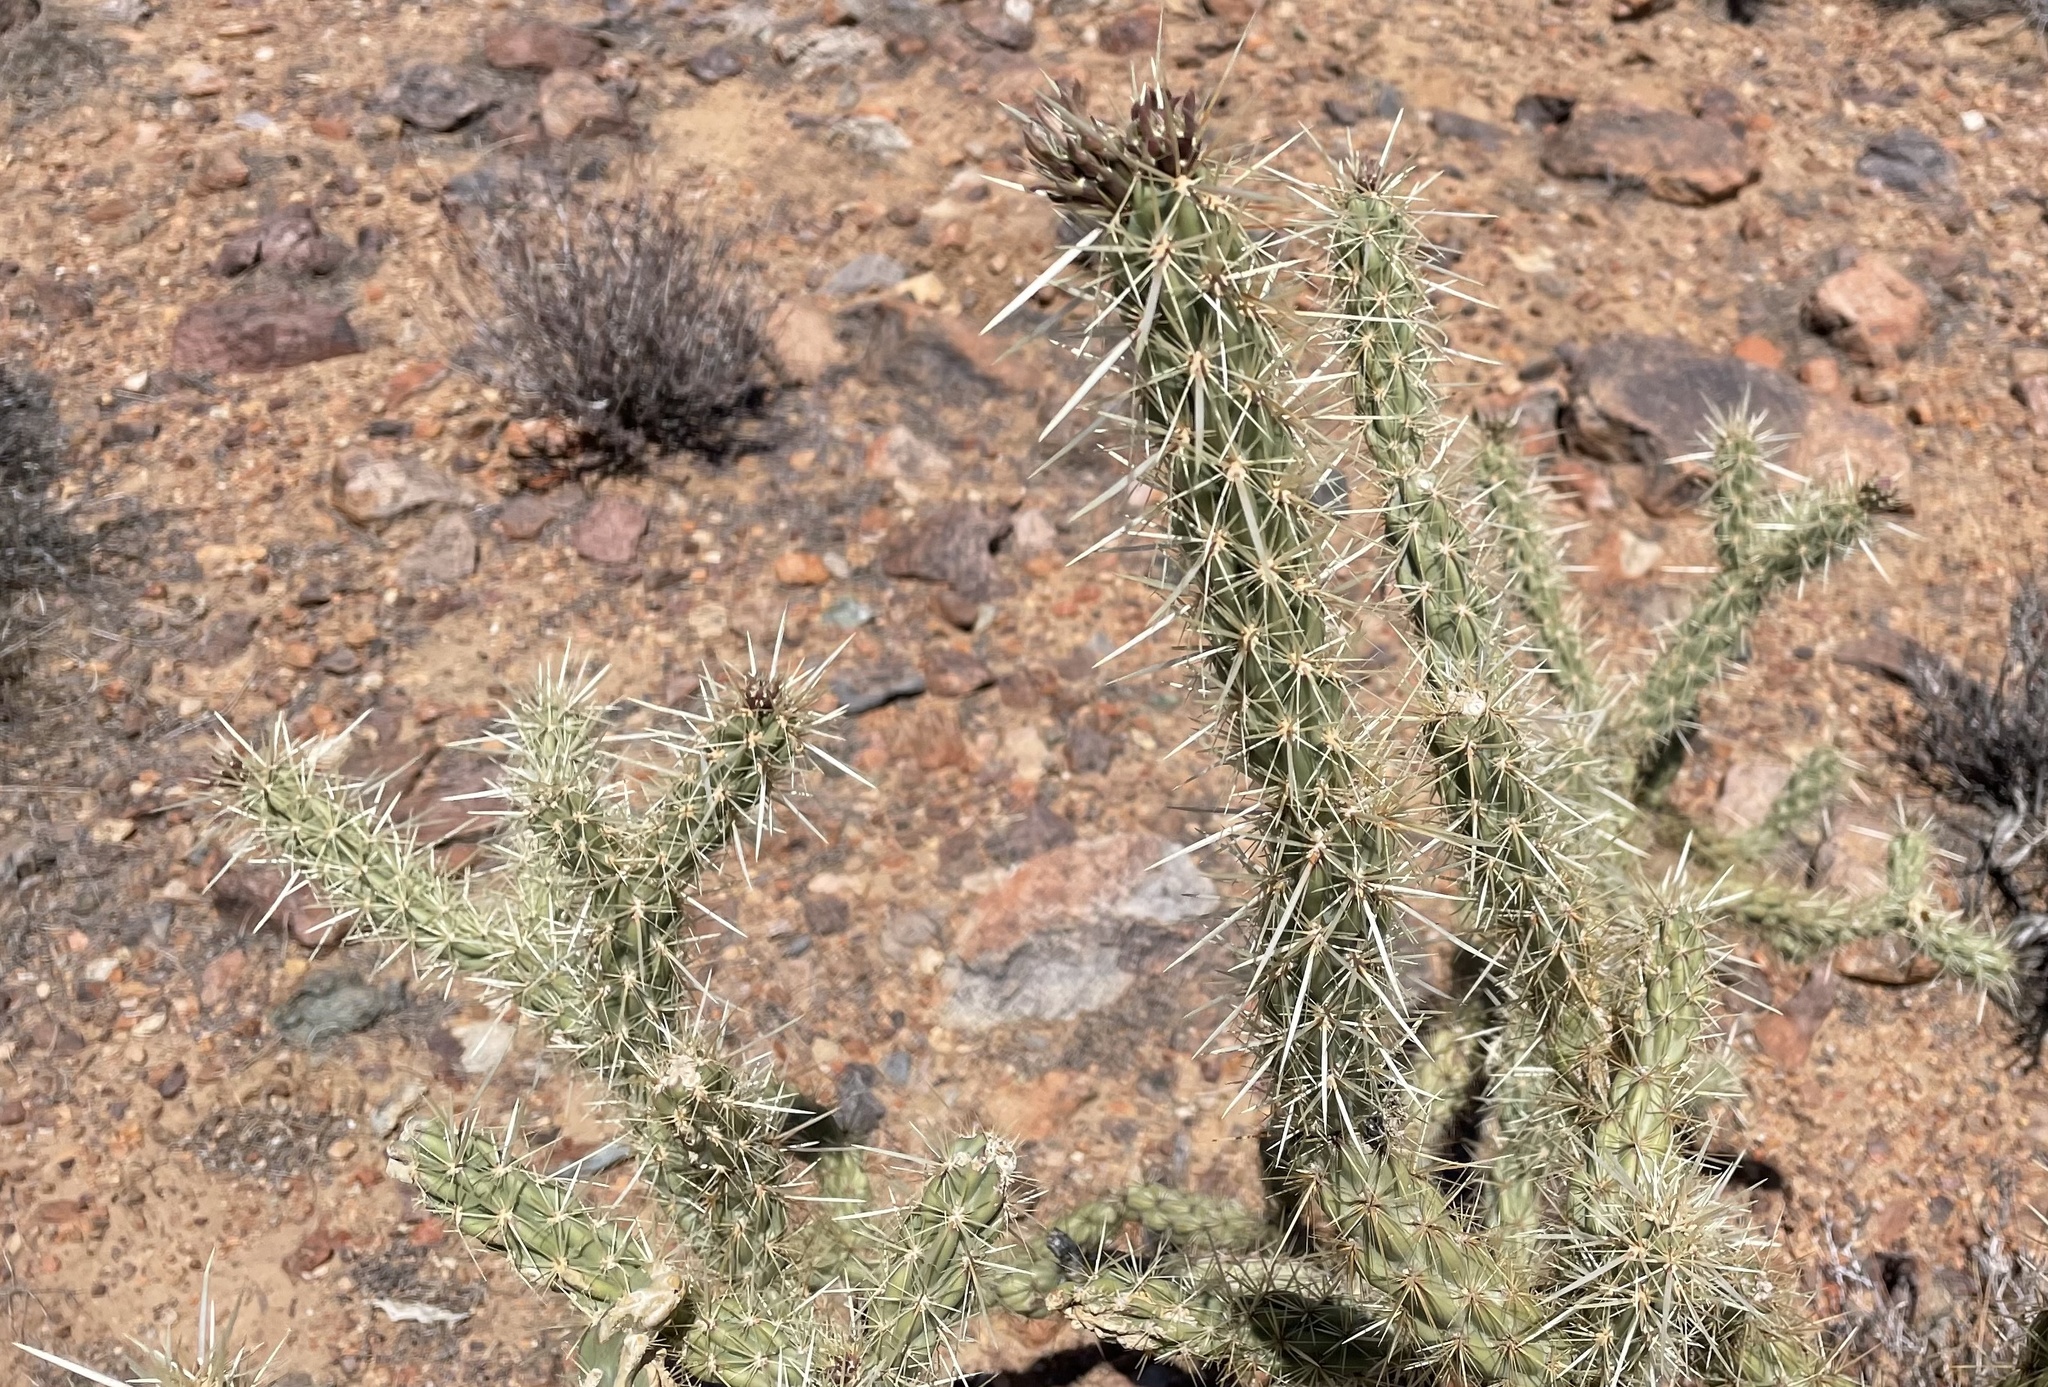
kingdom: Plantae
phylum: Tracheophyta
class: Magnoliopsida
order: Caryophyllales
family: Cactaceae
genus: Cylindropuntia
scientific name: Cylindropuntia acanthocarpa
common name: Buckhorn cholla
